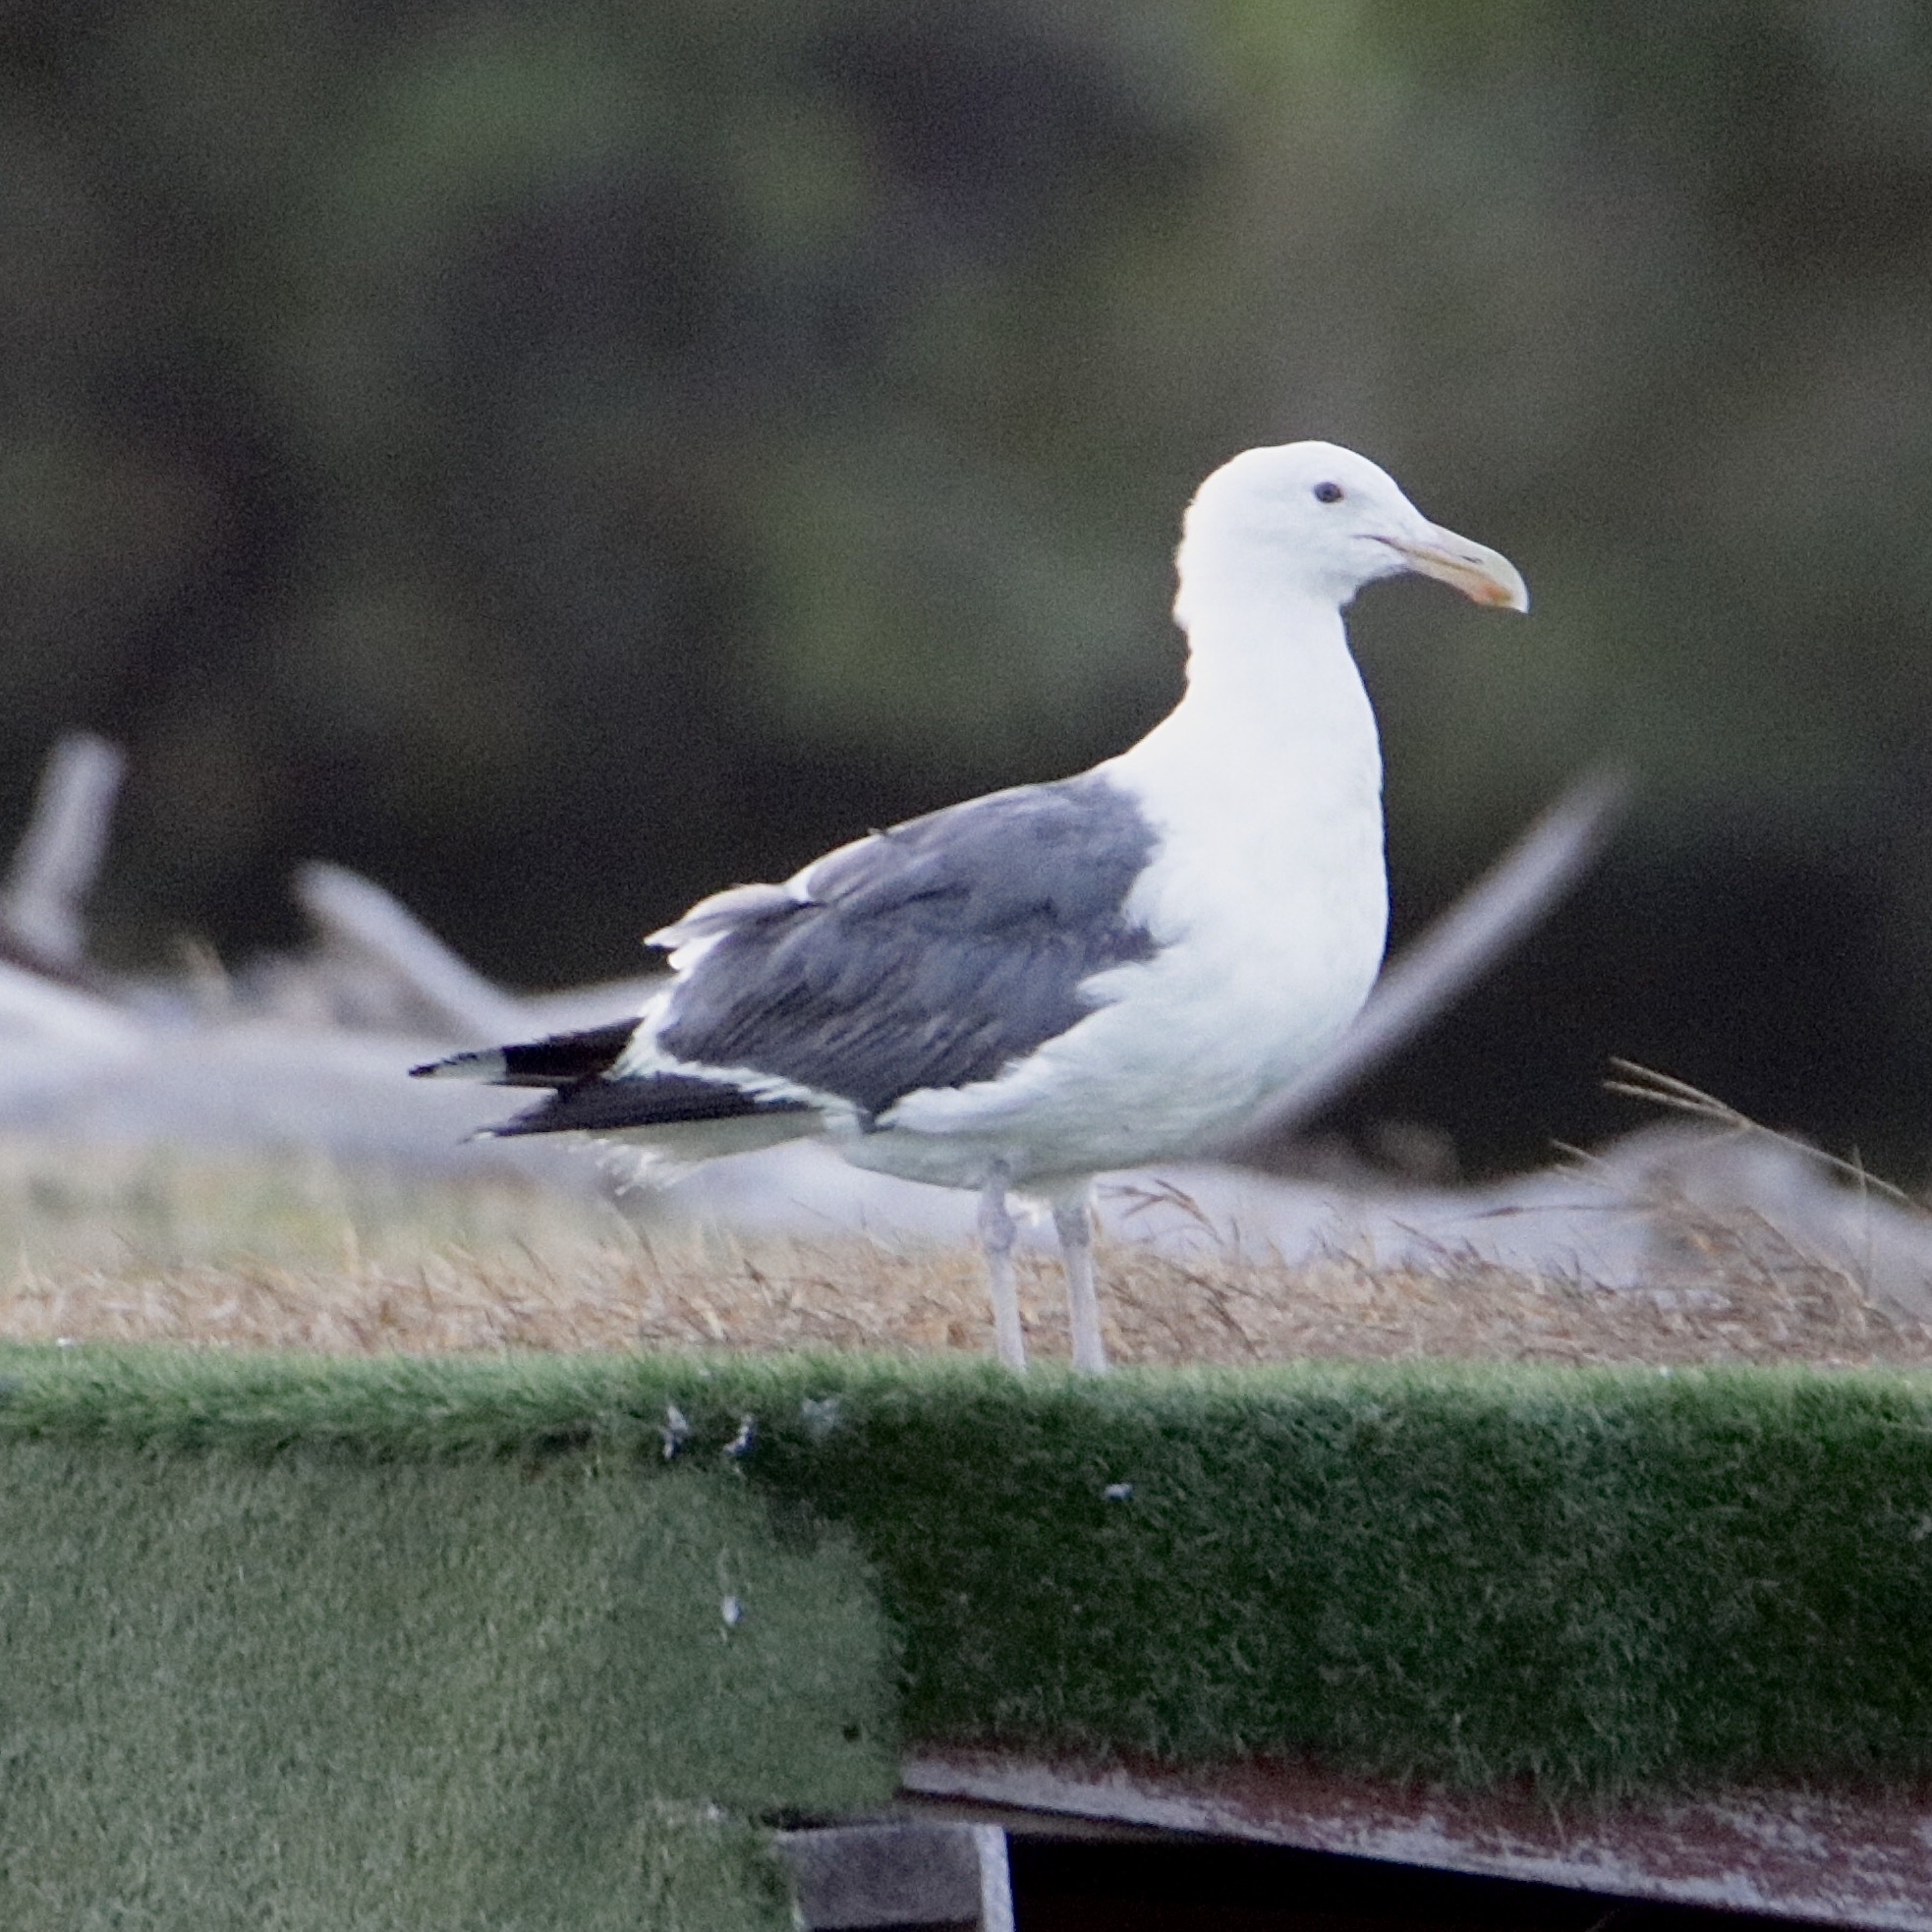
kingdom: Animalia
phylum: Chordata
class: Aves
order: Charadriiformes
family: Laridae
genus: Larus
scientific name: Larus occidentalis
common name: Western gull
